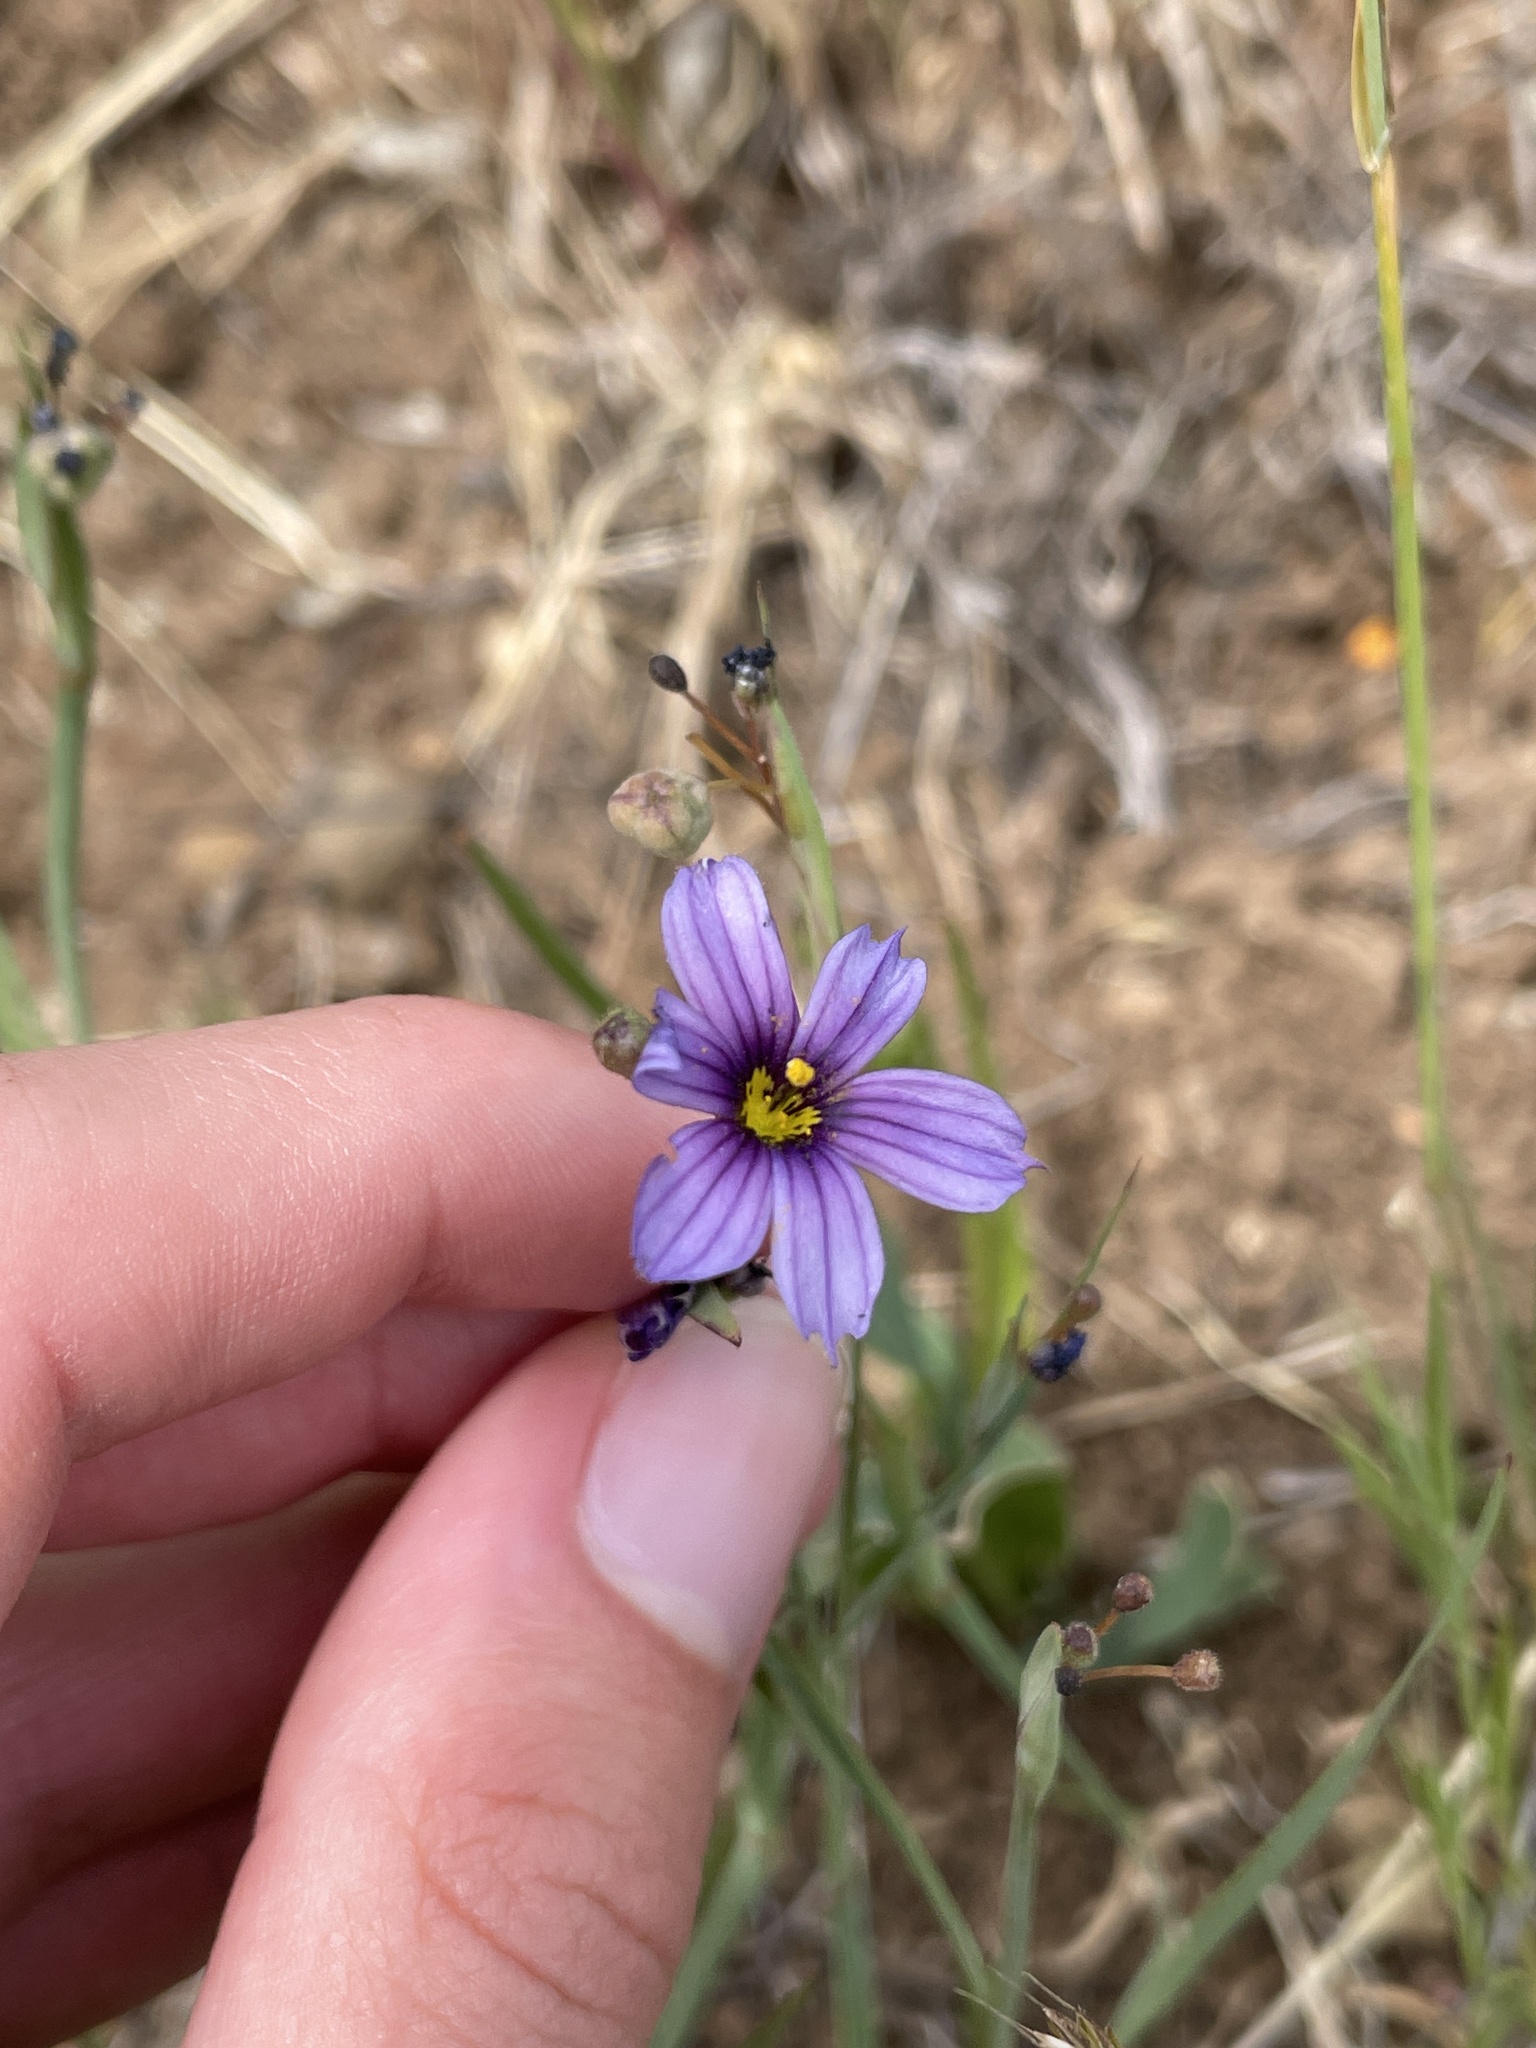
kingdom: Plantae
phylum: Tracheophyta
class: Liliopsida
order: Asparagales
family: Iridaceae
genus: Sisyrinchium
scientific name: Sisyrinchium bellum
